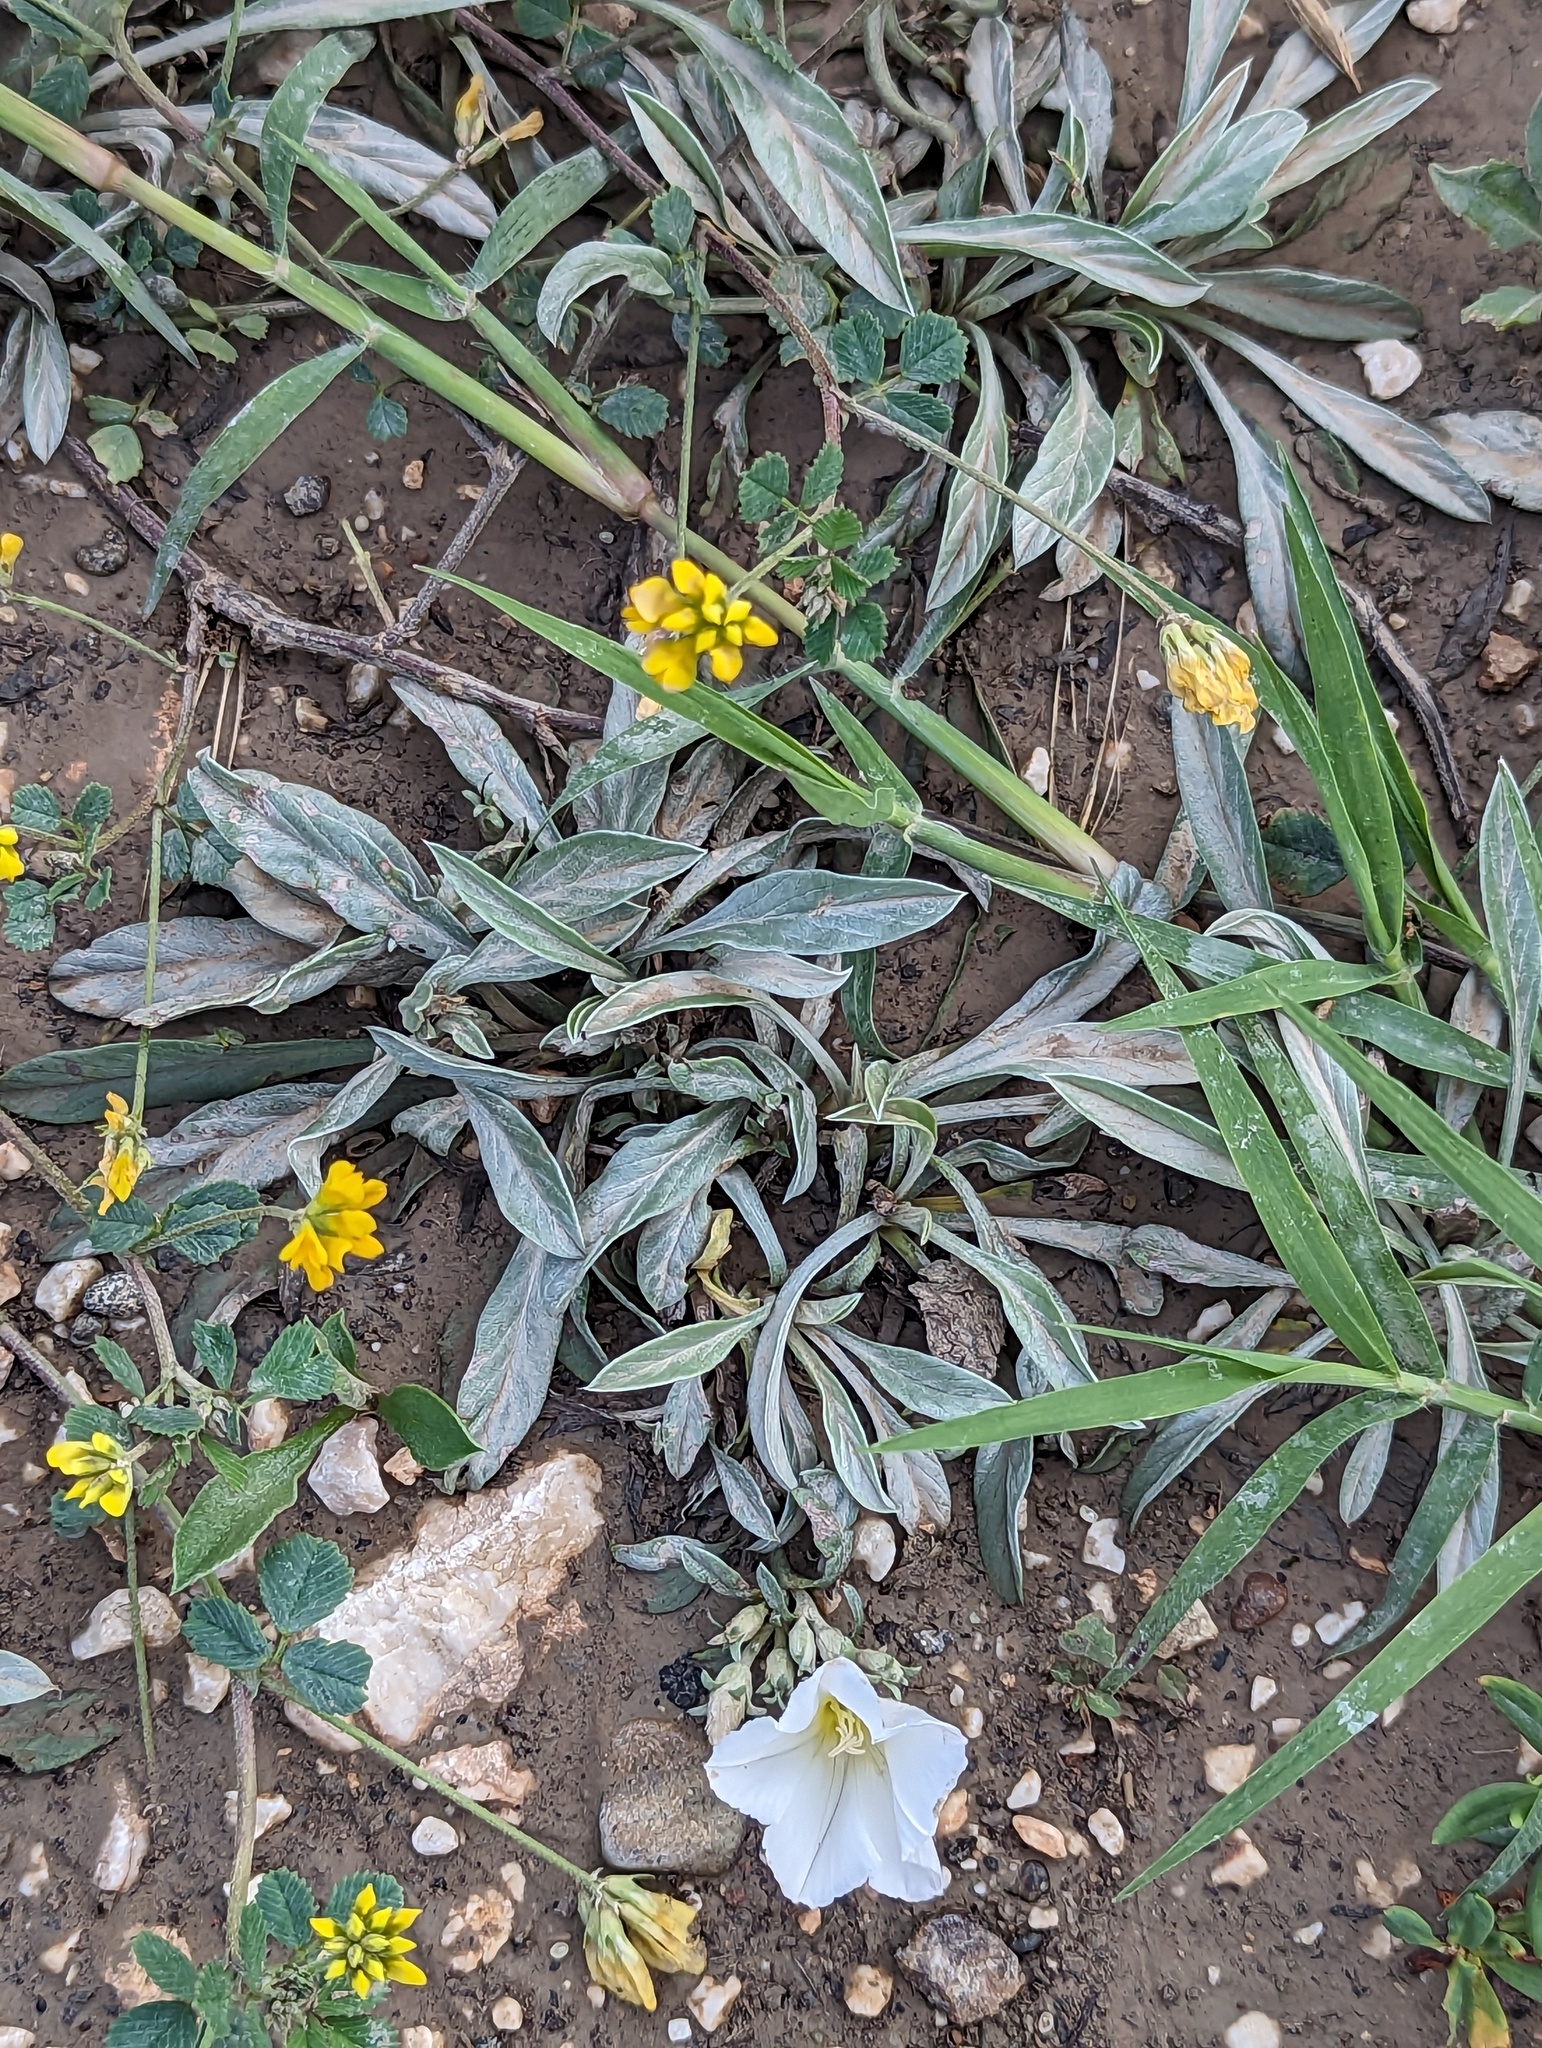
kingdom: Plantae
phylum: Tracheophyta
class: Magnoliopsida
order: Solanales
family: Convolvulaceae
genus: Convolvulus
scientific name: Convolvulus lineatus
